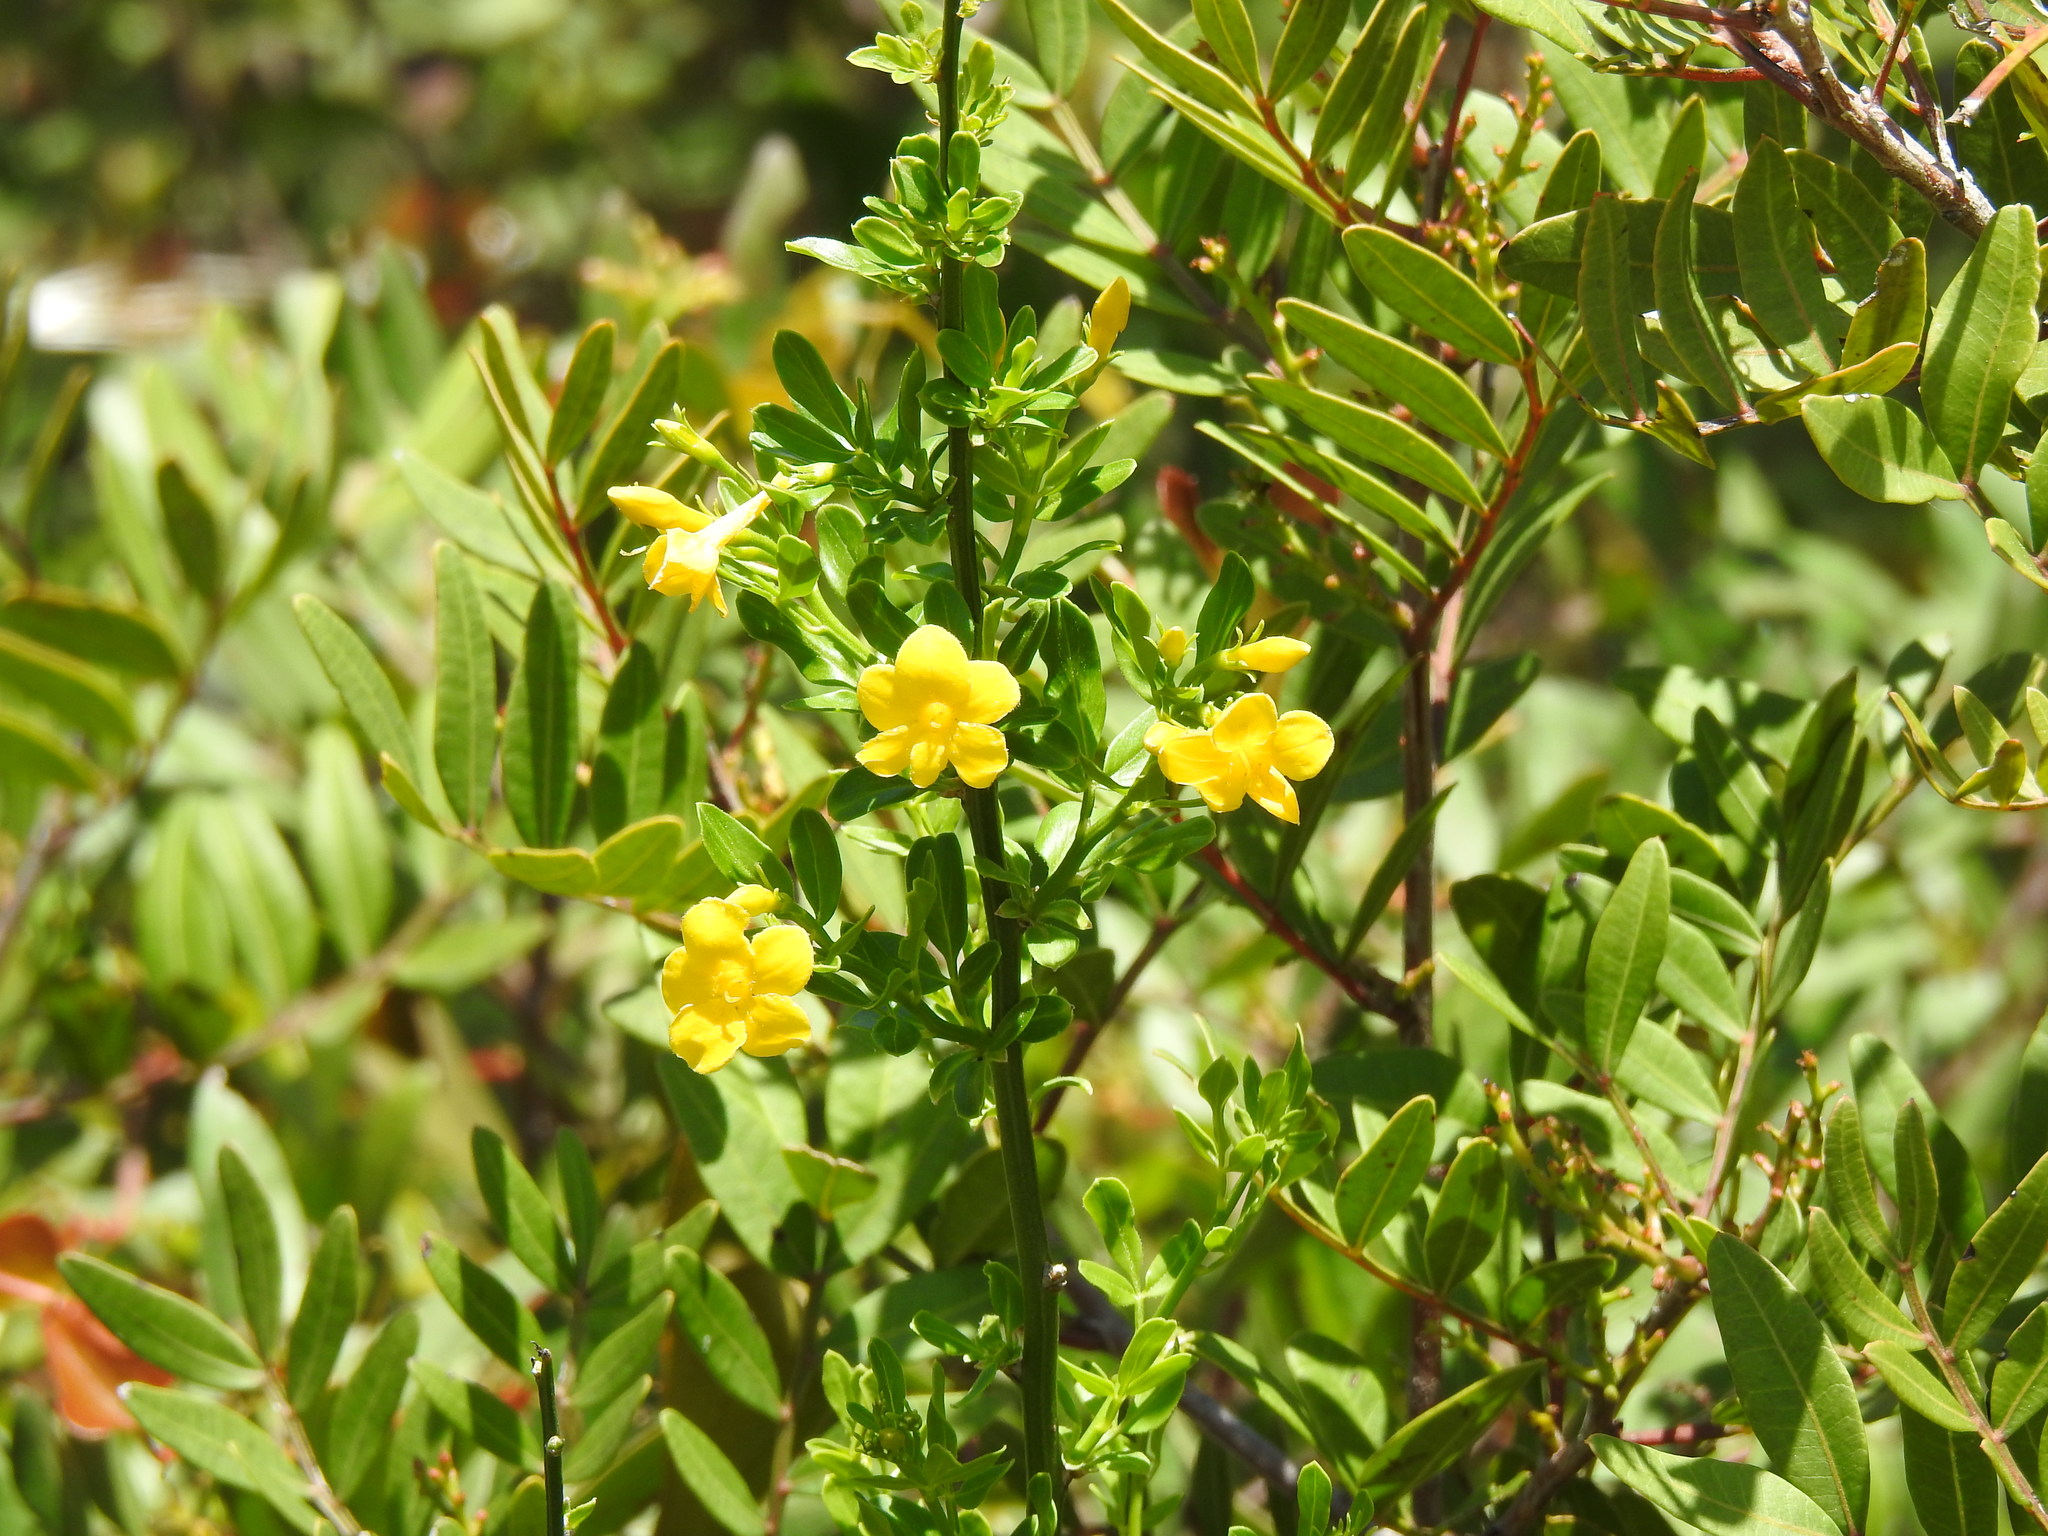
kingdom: Plantae
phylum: Tracheophyta
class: Magnoliopsida
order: Lamiales
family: Oleaceae
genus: Chrysojasminum
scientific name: Chrysojasminum fruticans
